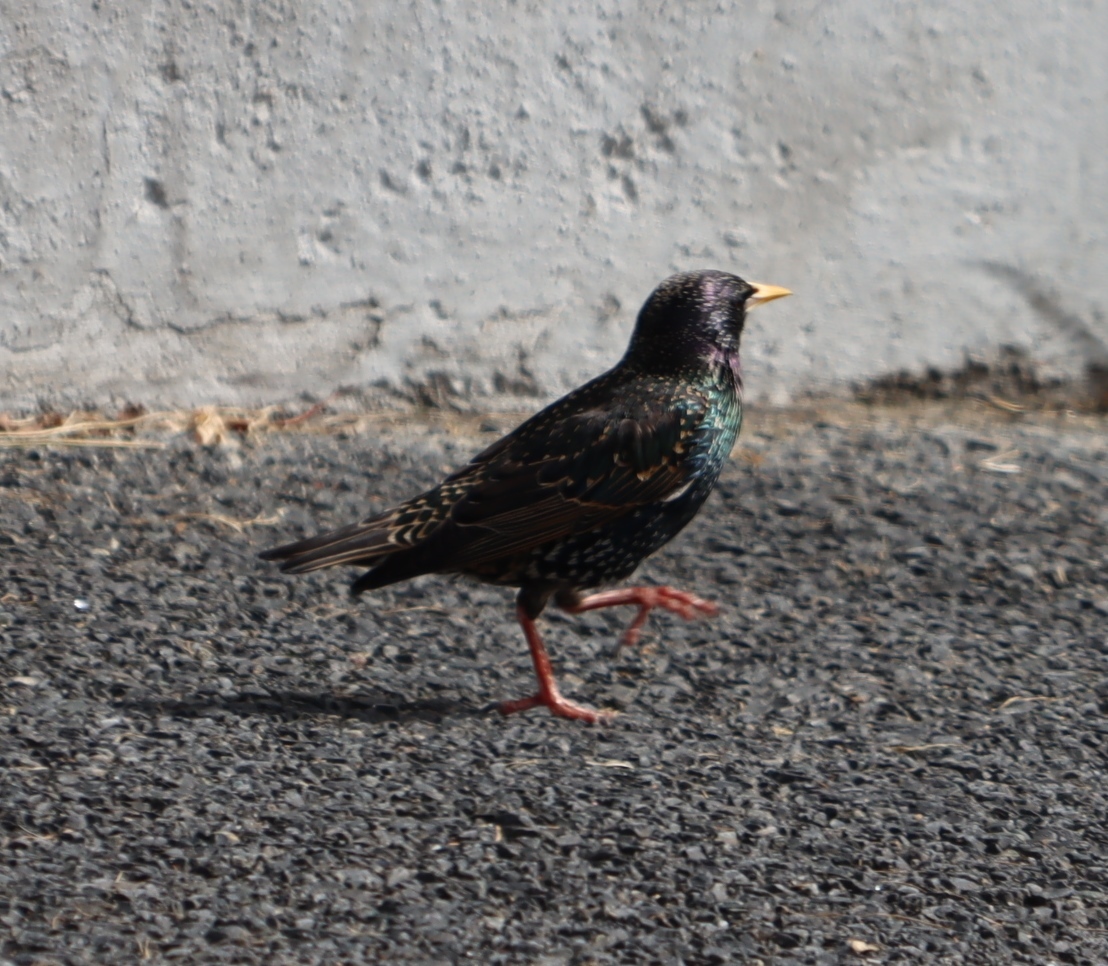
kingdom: Animalia
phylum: Chordata
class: Aves
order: Passeriformes
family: Sturnidae
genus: Sturnus
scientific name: Sturnus vulgaris
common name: Common starling
